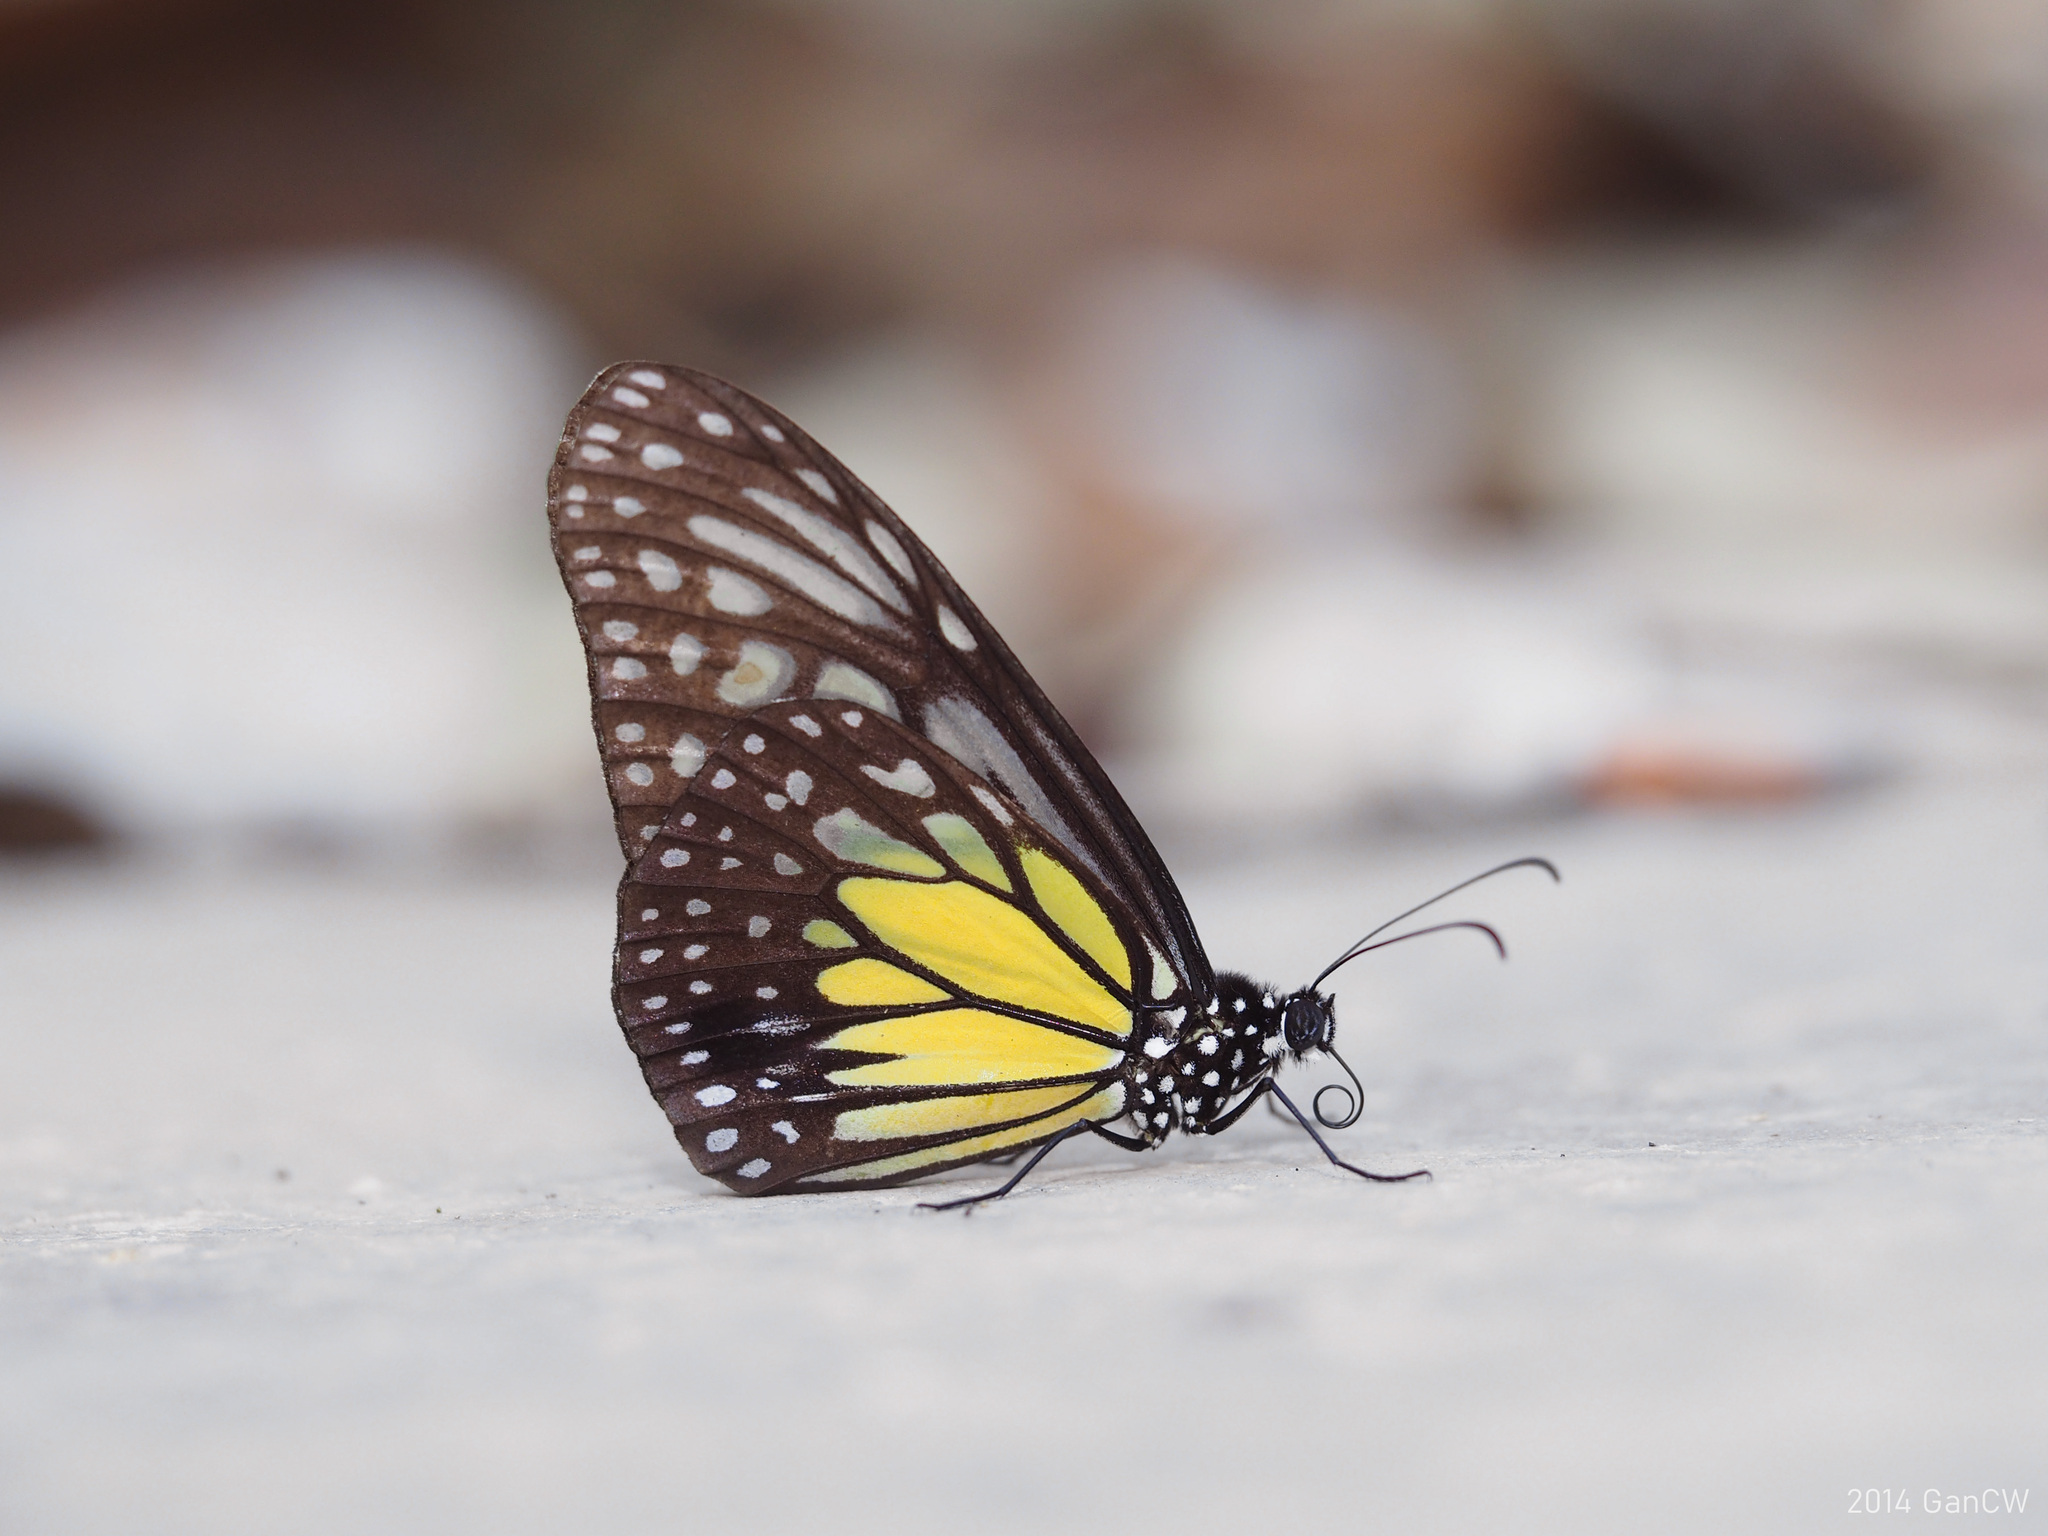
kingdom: Animalia
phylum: Arthropoda
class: Insecta
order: Lepidoptera
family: Nymphalidae
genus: Parantica
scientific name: Parantica aspasia
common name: Yellow glassy tiger
